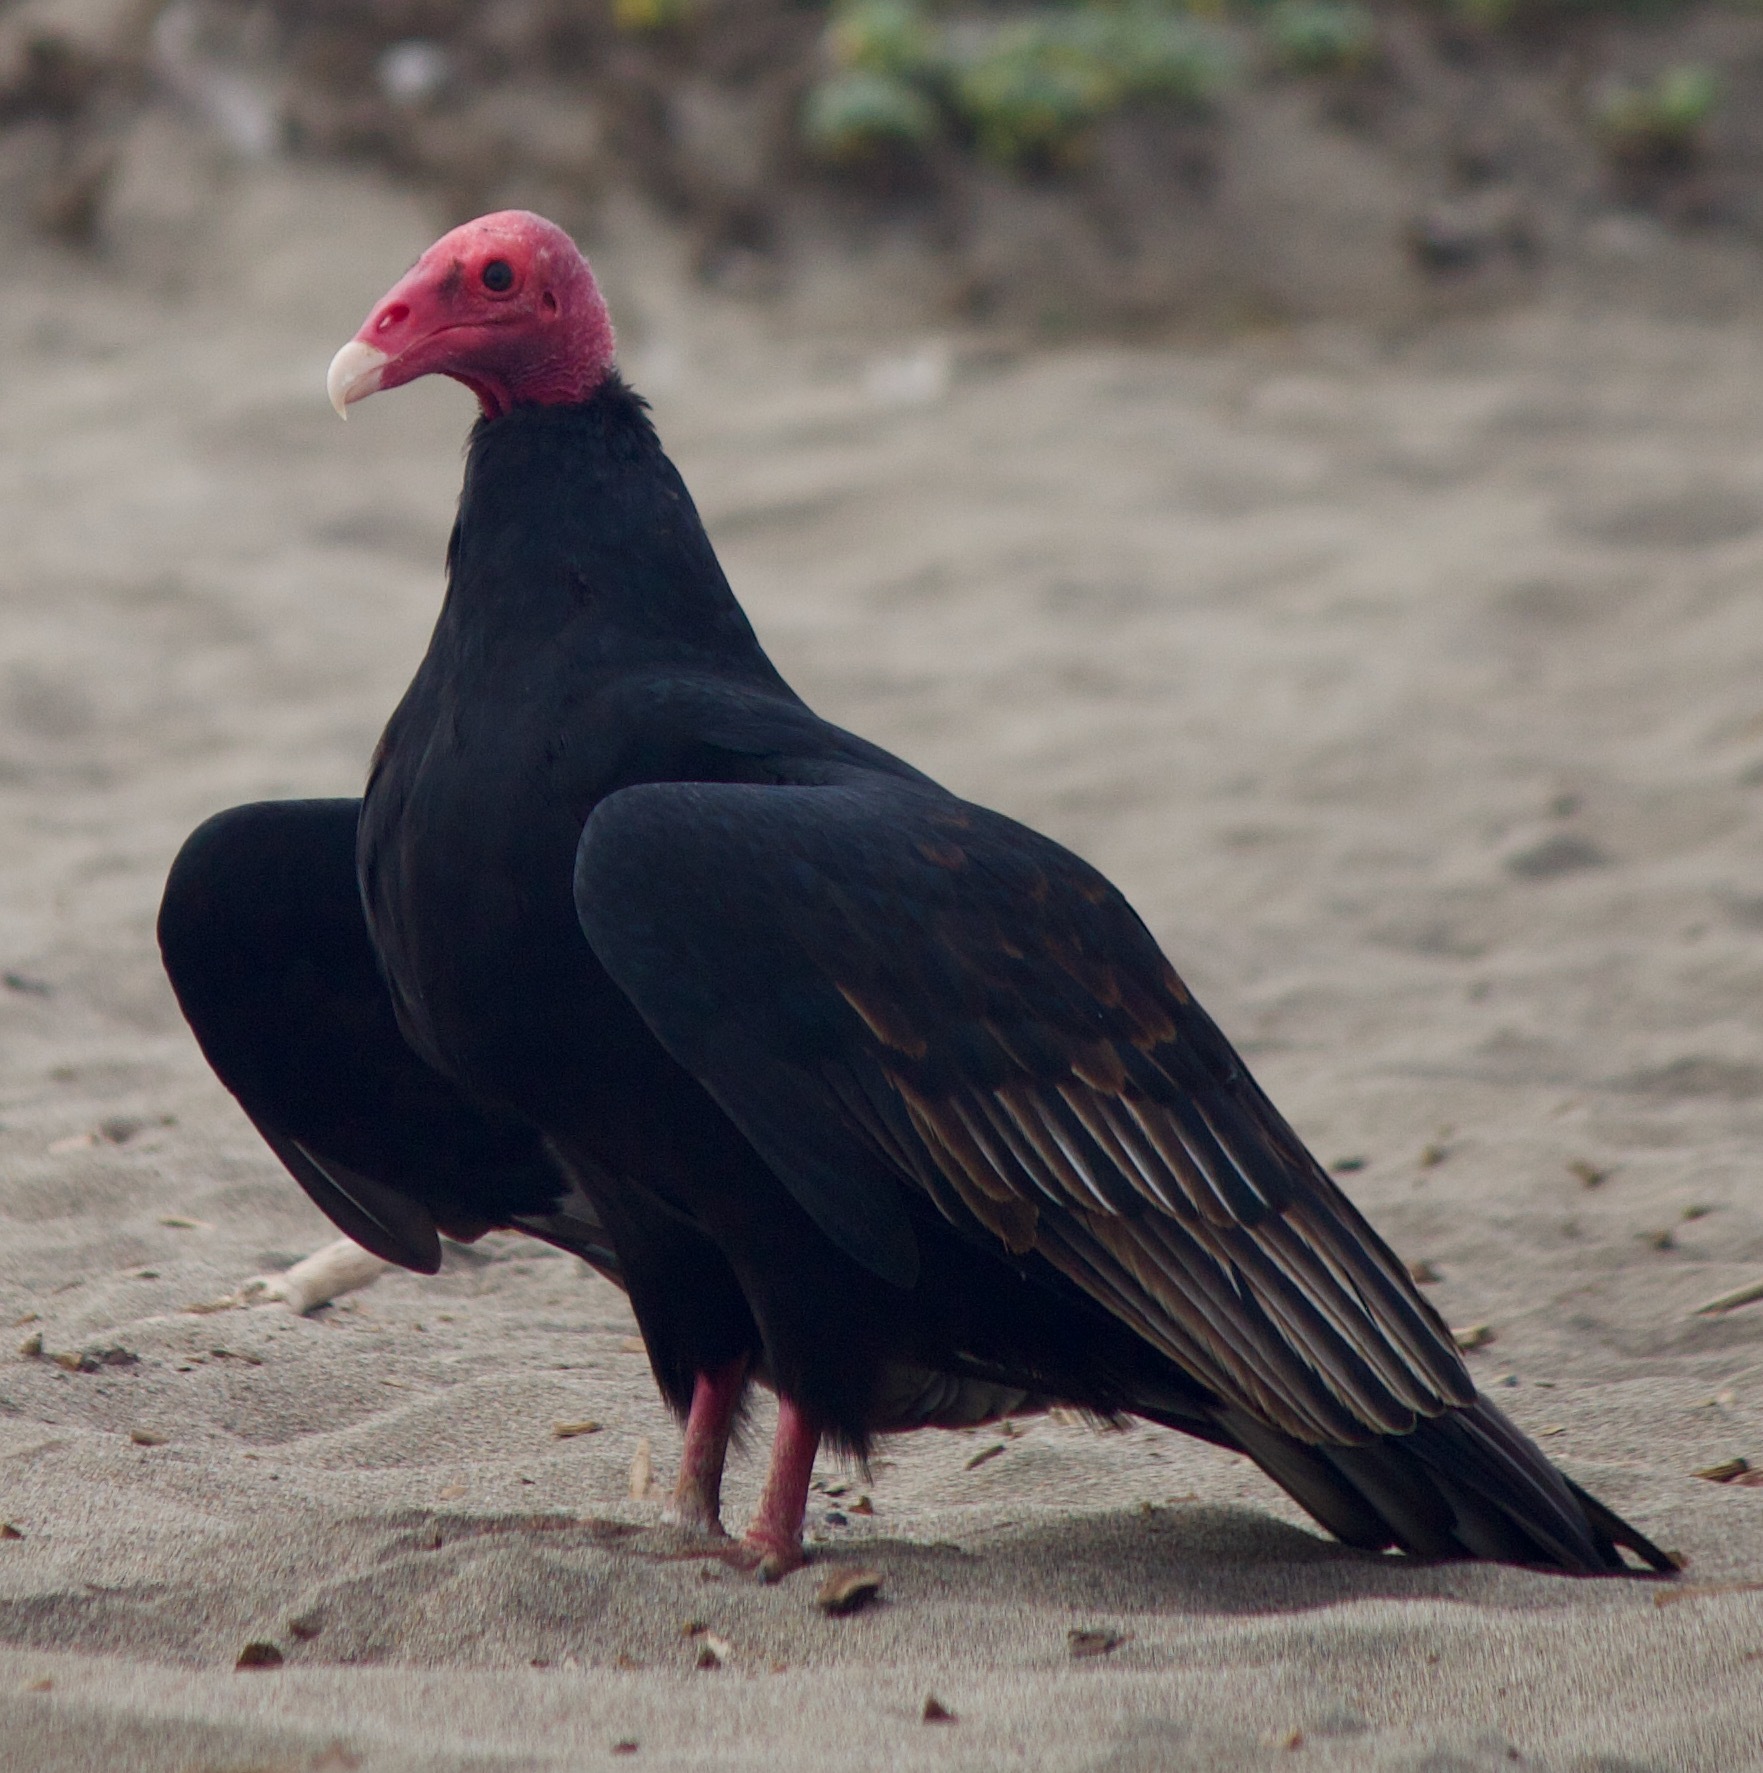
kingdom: Animalia
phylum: Chordata
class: Aves
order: Accipitriformes
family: Cathartidae
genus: Cathartes
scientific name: Cathartes aura
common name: Turkey vulture
